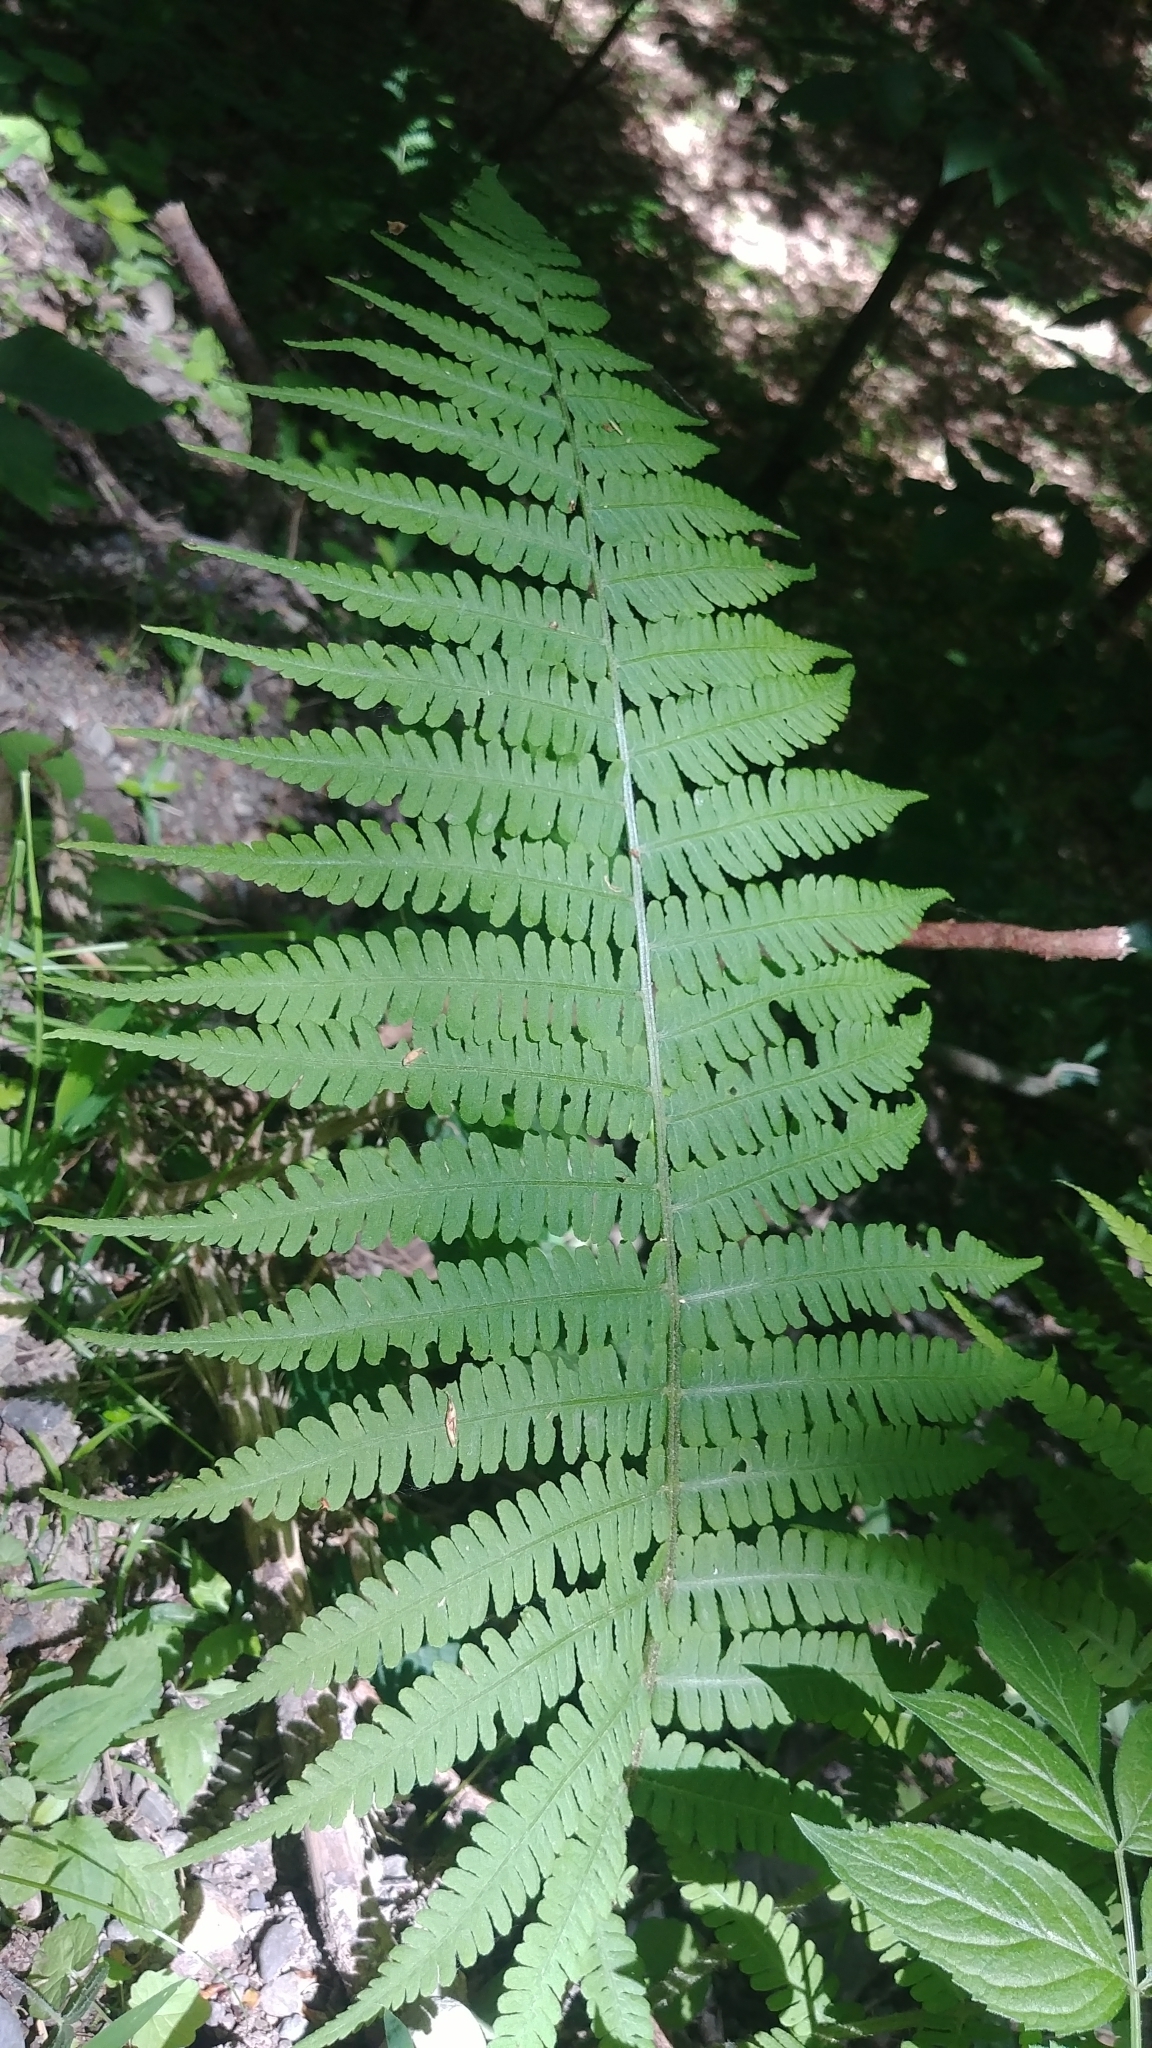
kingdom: Plantae
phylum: Tracheophyta
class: Polypodiopsida
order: Polypodiales
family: Athyriaceae
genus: Deparia
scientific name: Deparia acrostichoides
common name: Silver false spleenwort
